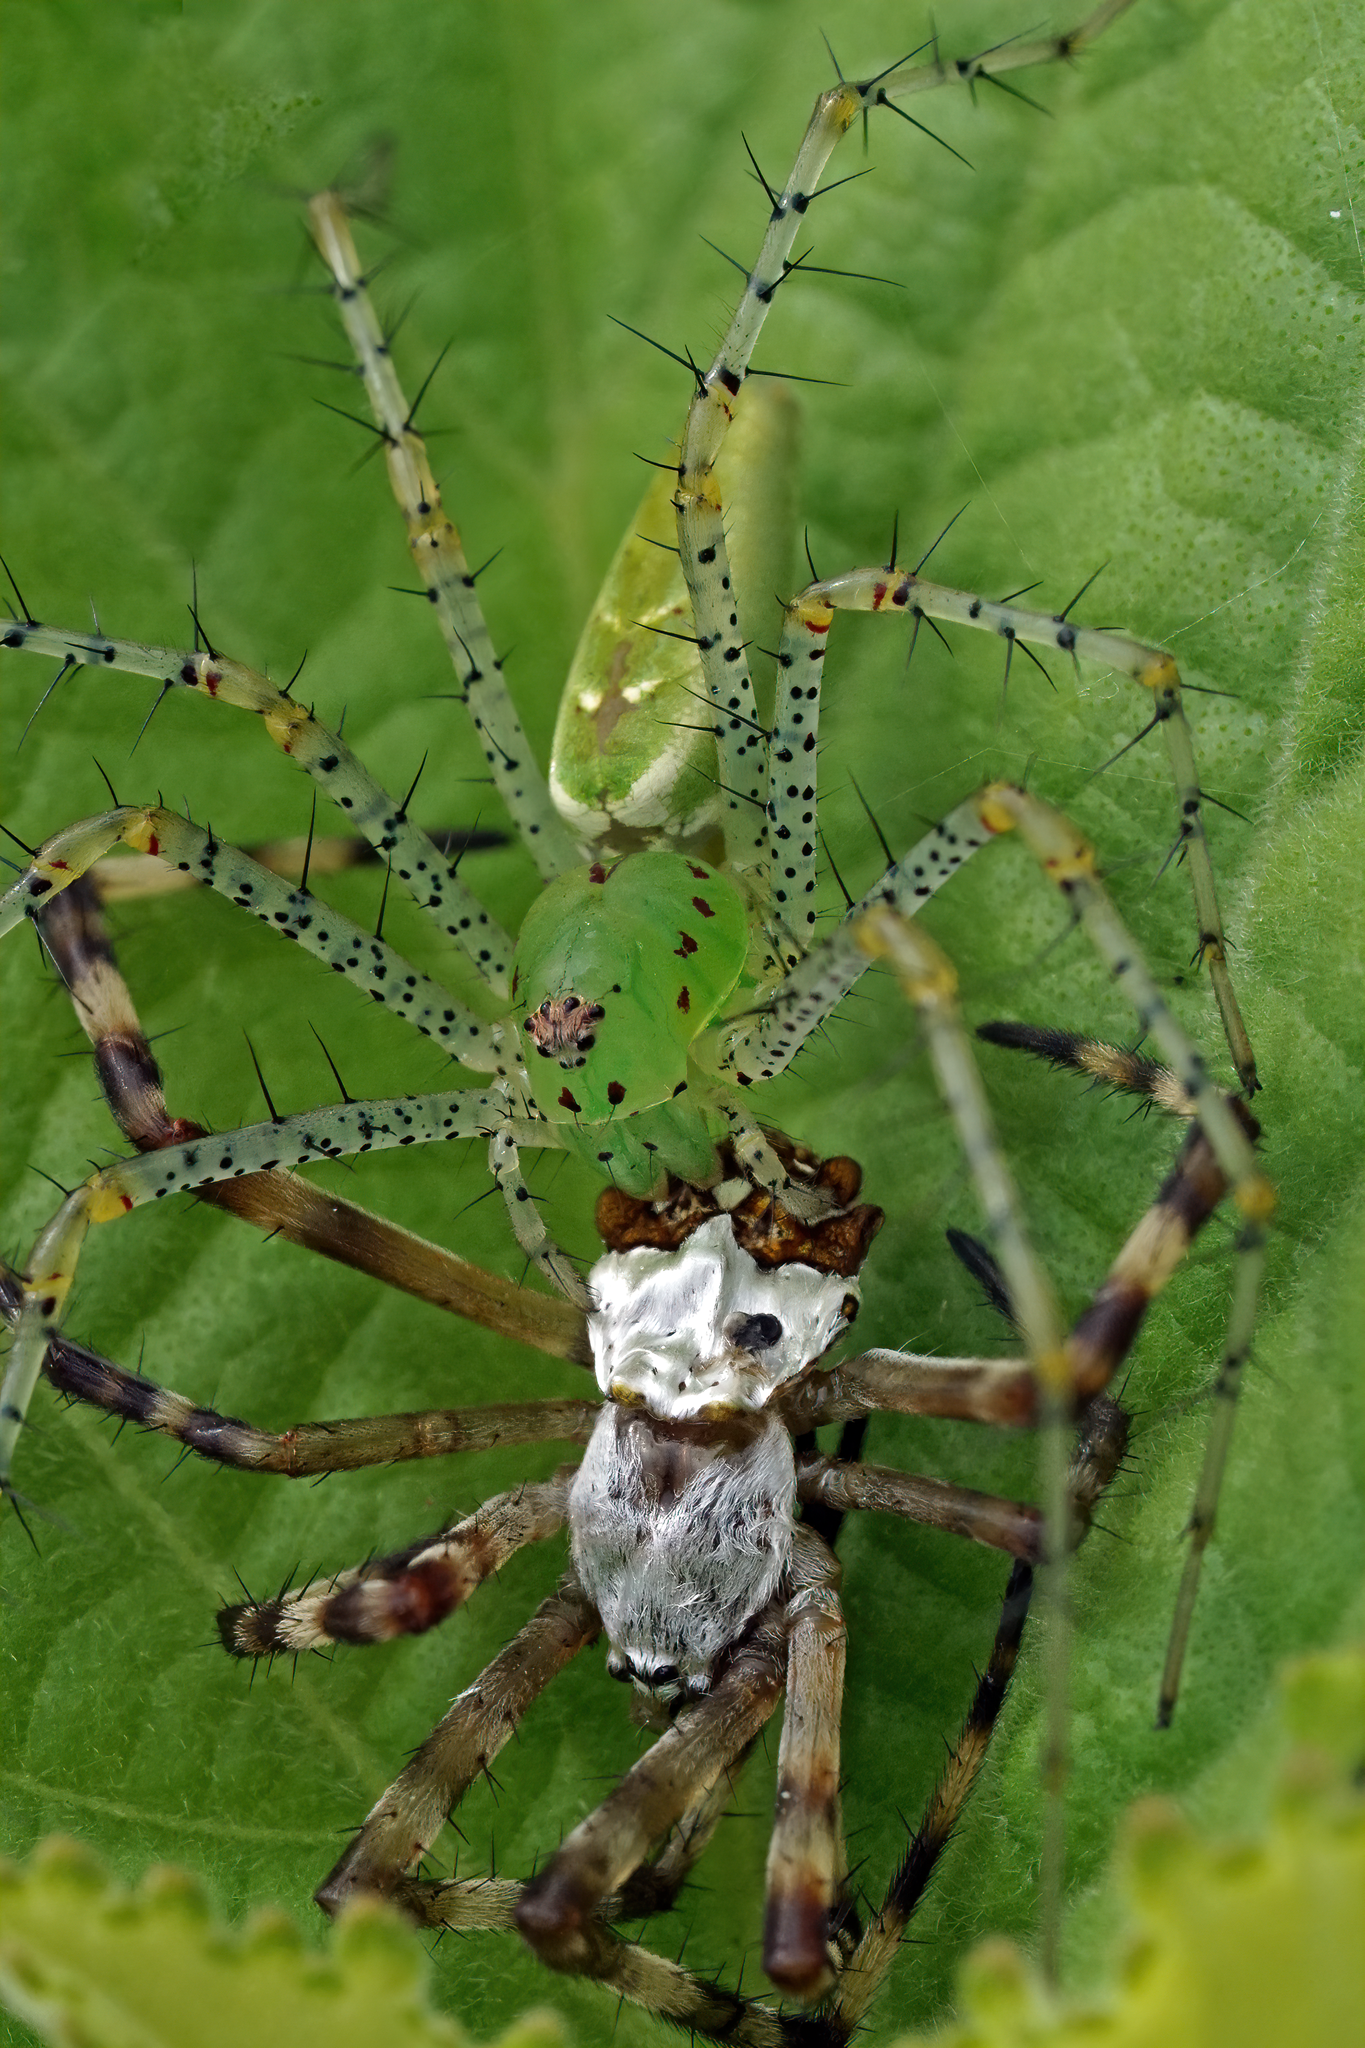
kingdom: Animalia
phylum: Arthropoda
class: Arachnida
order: Araneae
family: Oxyopidae
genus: Peucetia
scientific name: Peucetia viridans
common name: Lynx spiders
